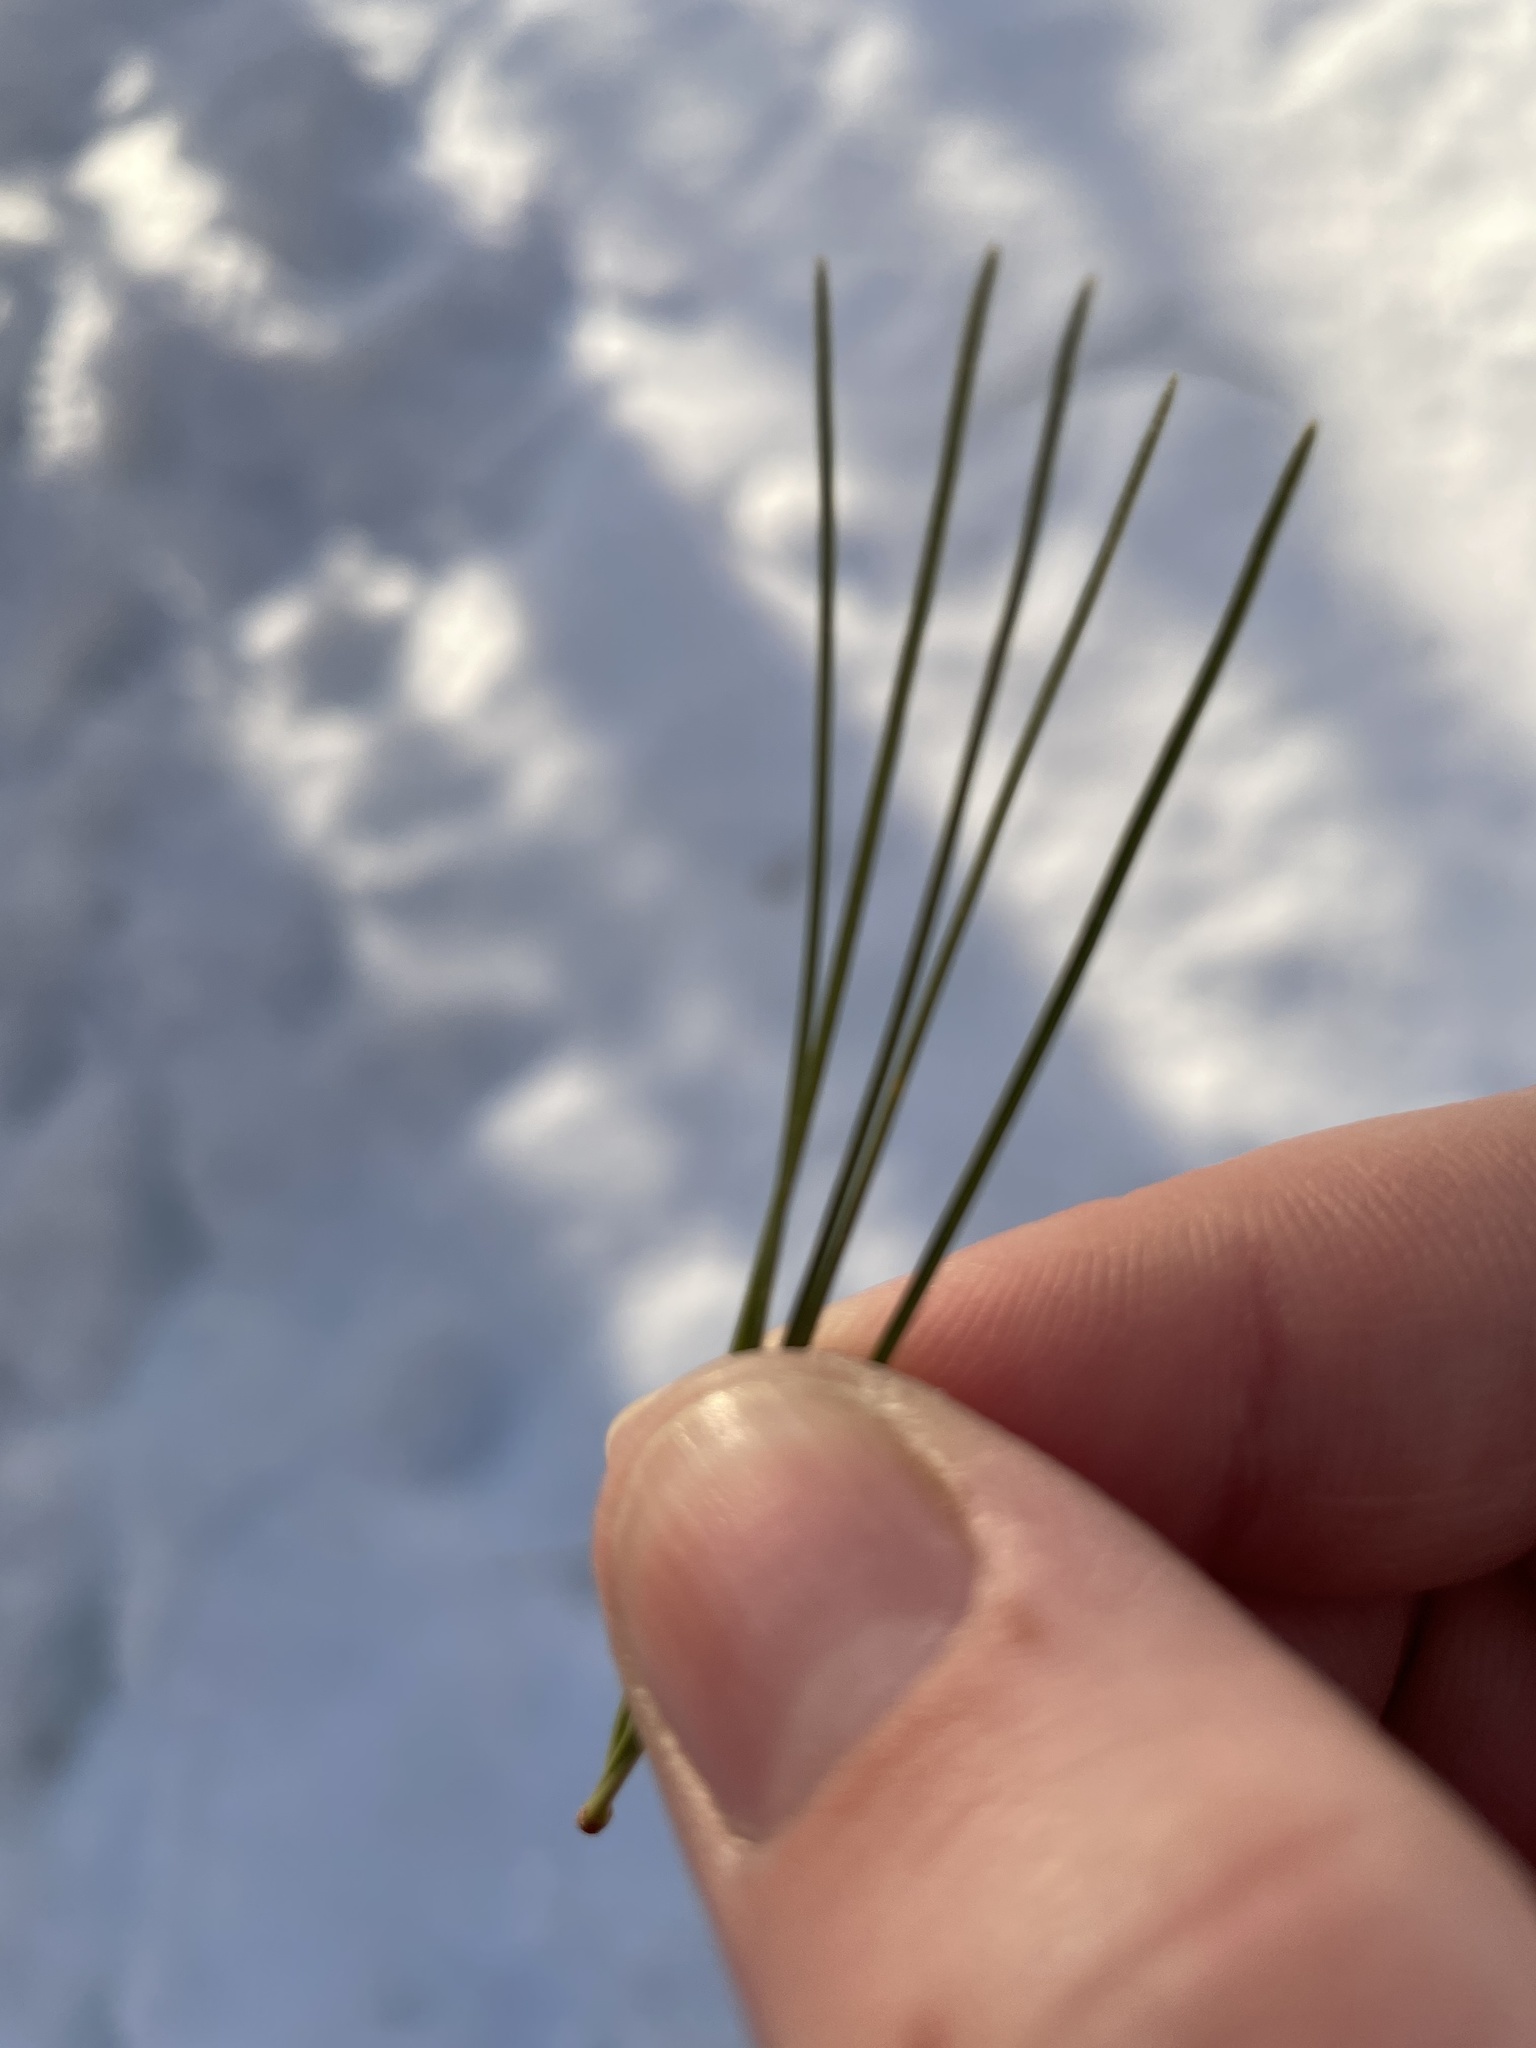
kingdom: Plantae
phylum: Tracheophyta
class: Pinopsida
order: Pinales
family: Pinaceae
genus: Pinus
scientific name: Pinus strobus
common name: Weymouth pine
